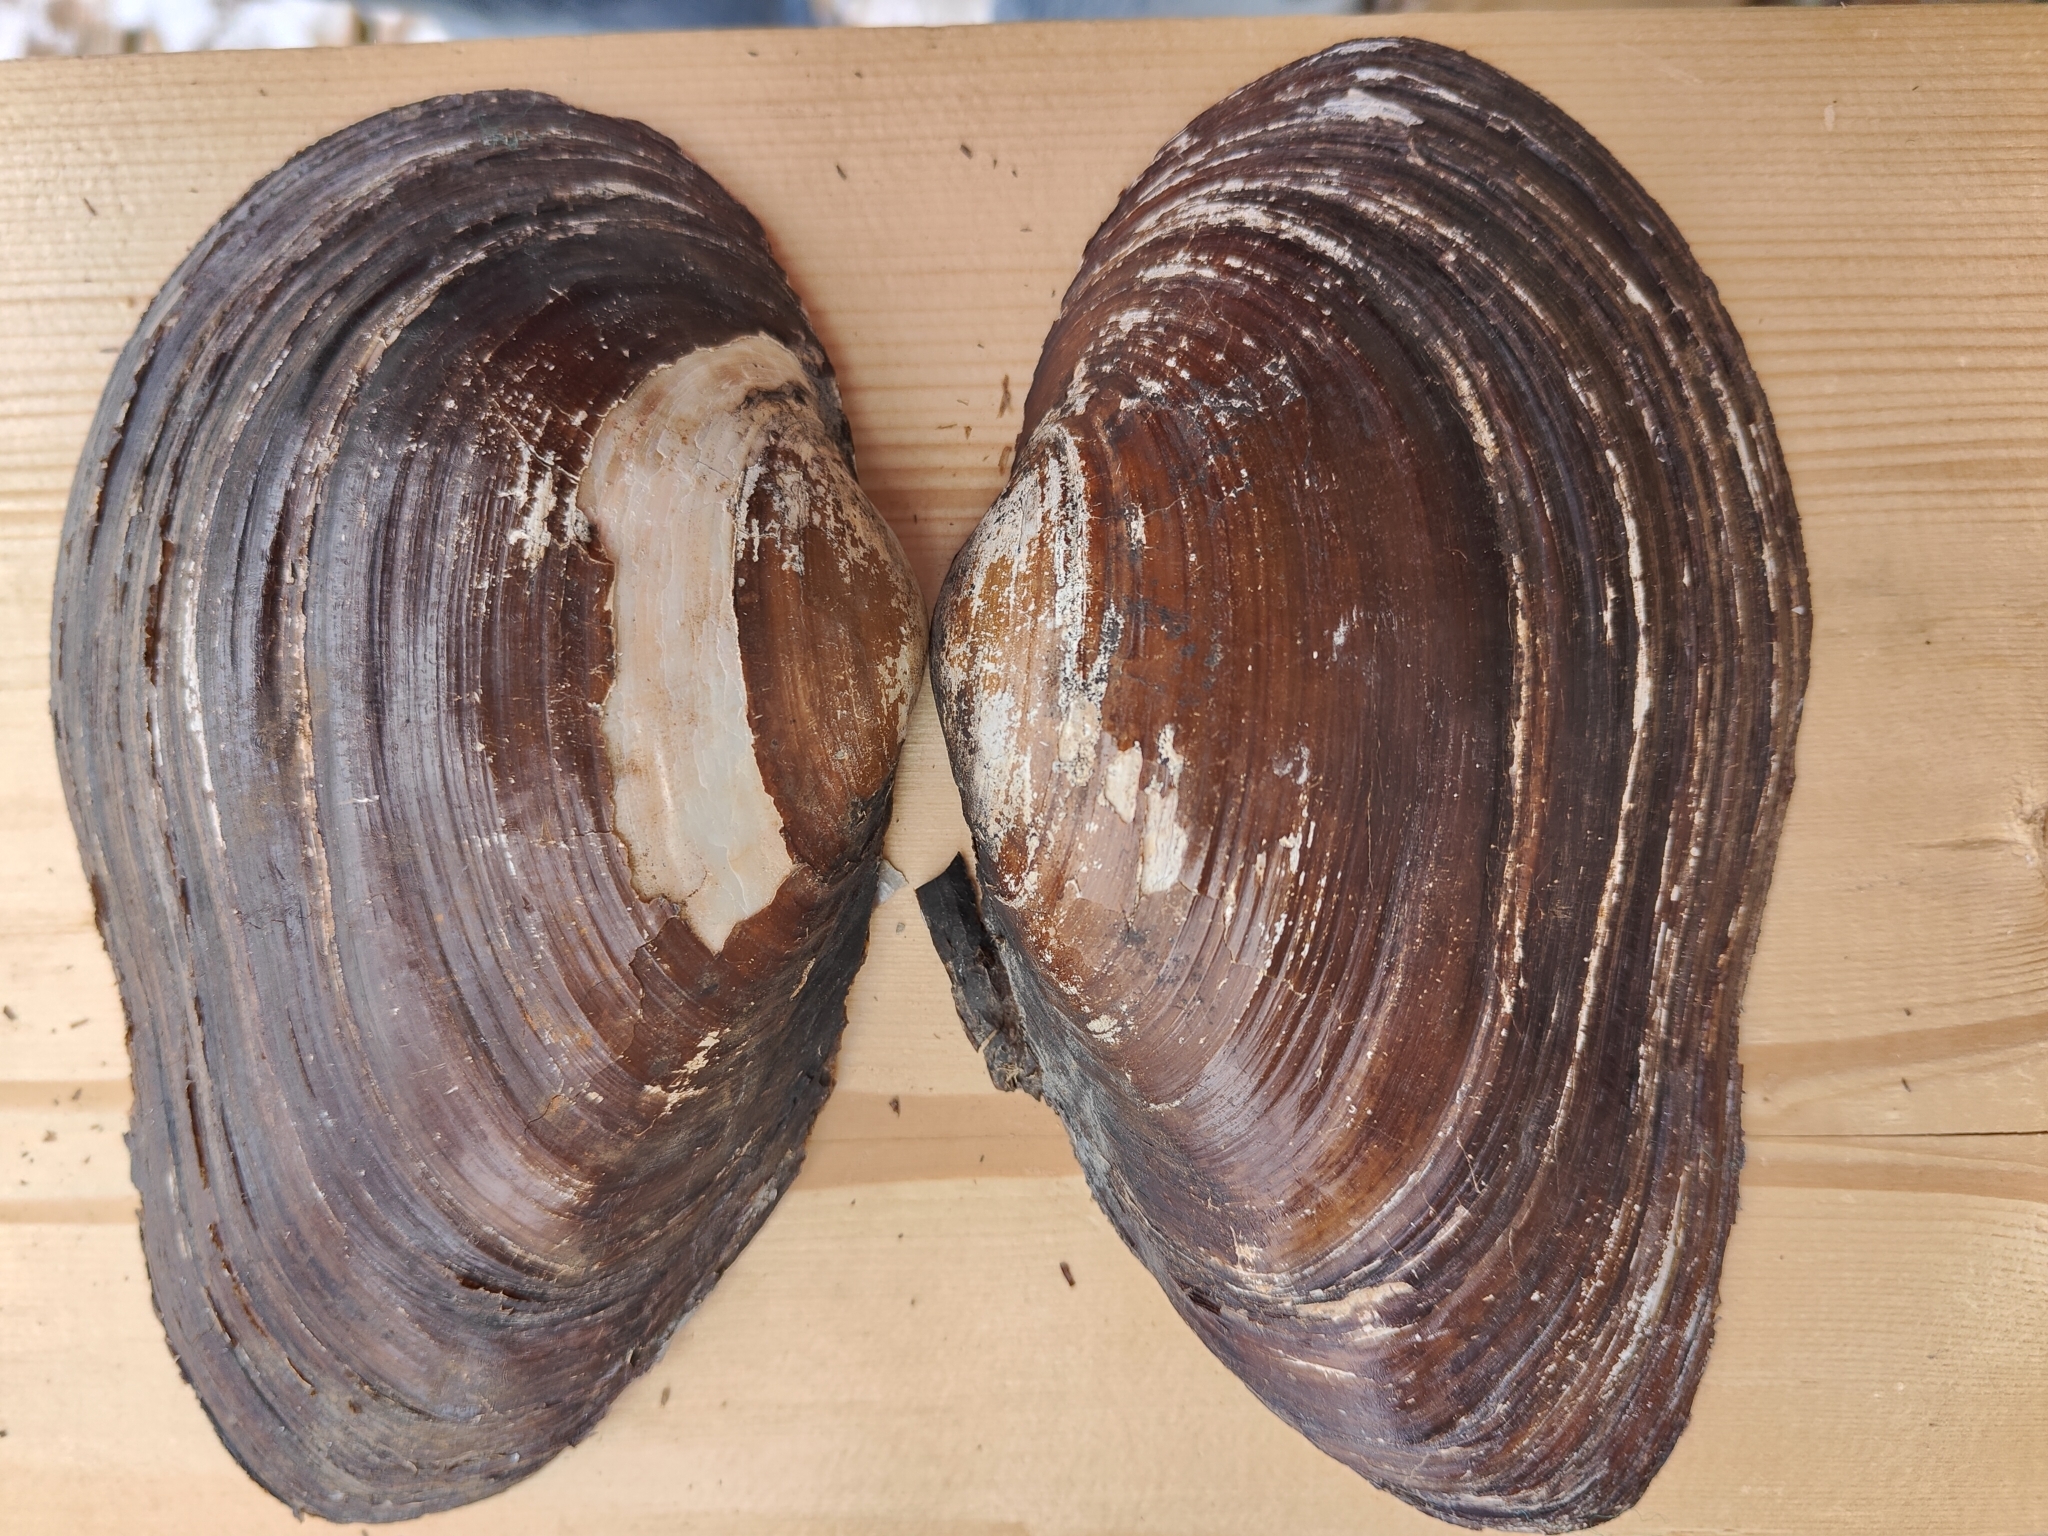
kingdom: Animalia
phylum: Mollusca
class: Bivalvia
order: Unionida
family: Unionidae
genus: Pyganodon
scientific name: Pyganodon grandis
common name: Giant floater
